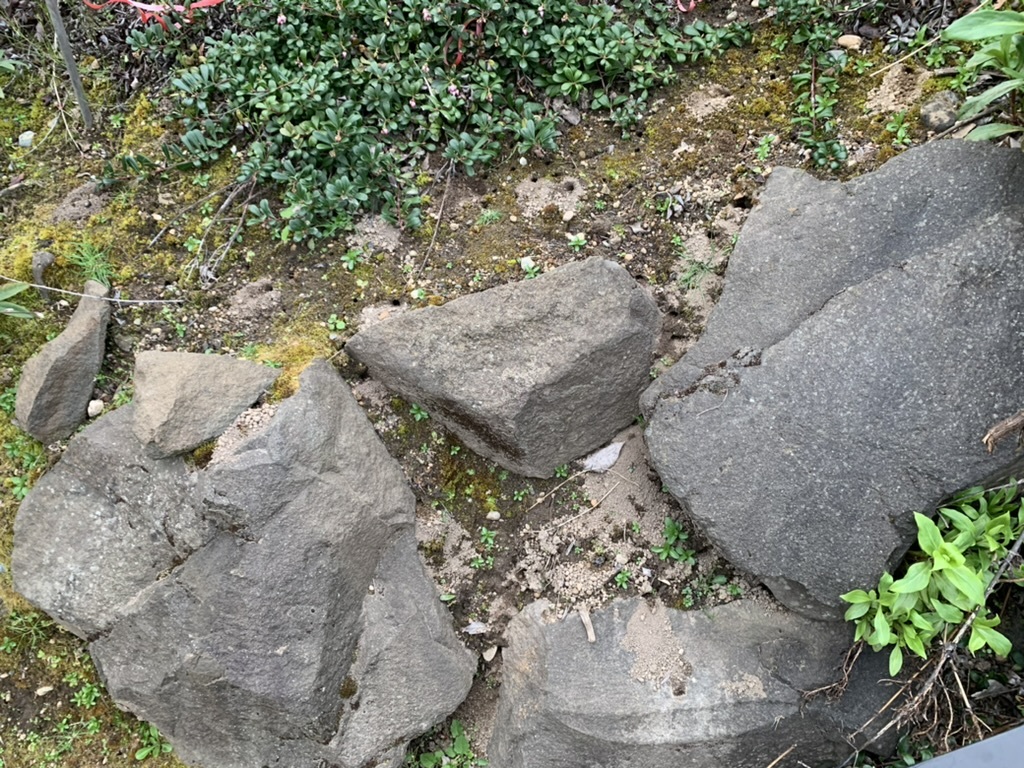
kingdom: Animalia
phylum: Arthropoda
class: Insecta
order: Hymenoptera
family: Apidae
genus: Anthophora
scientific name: Anthophora pacifica
